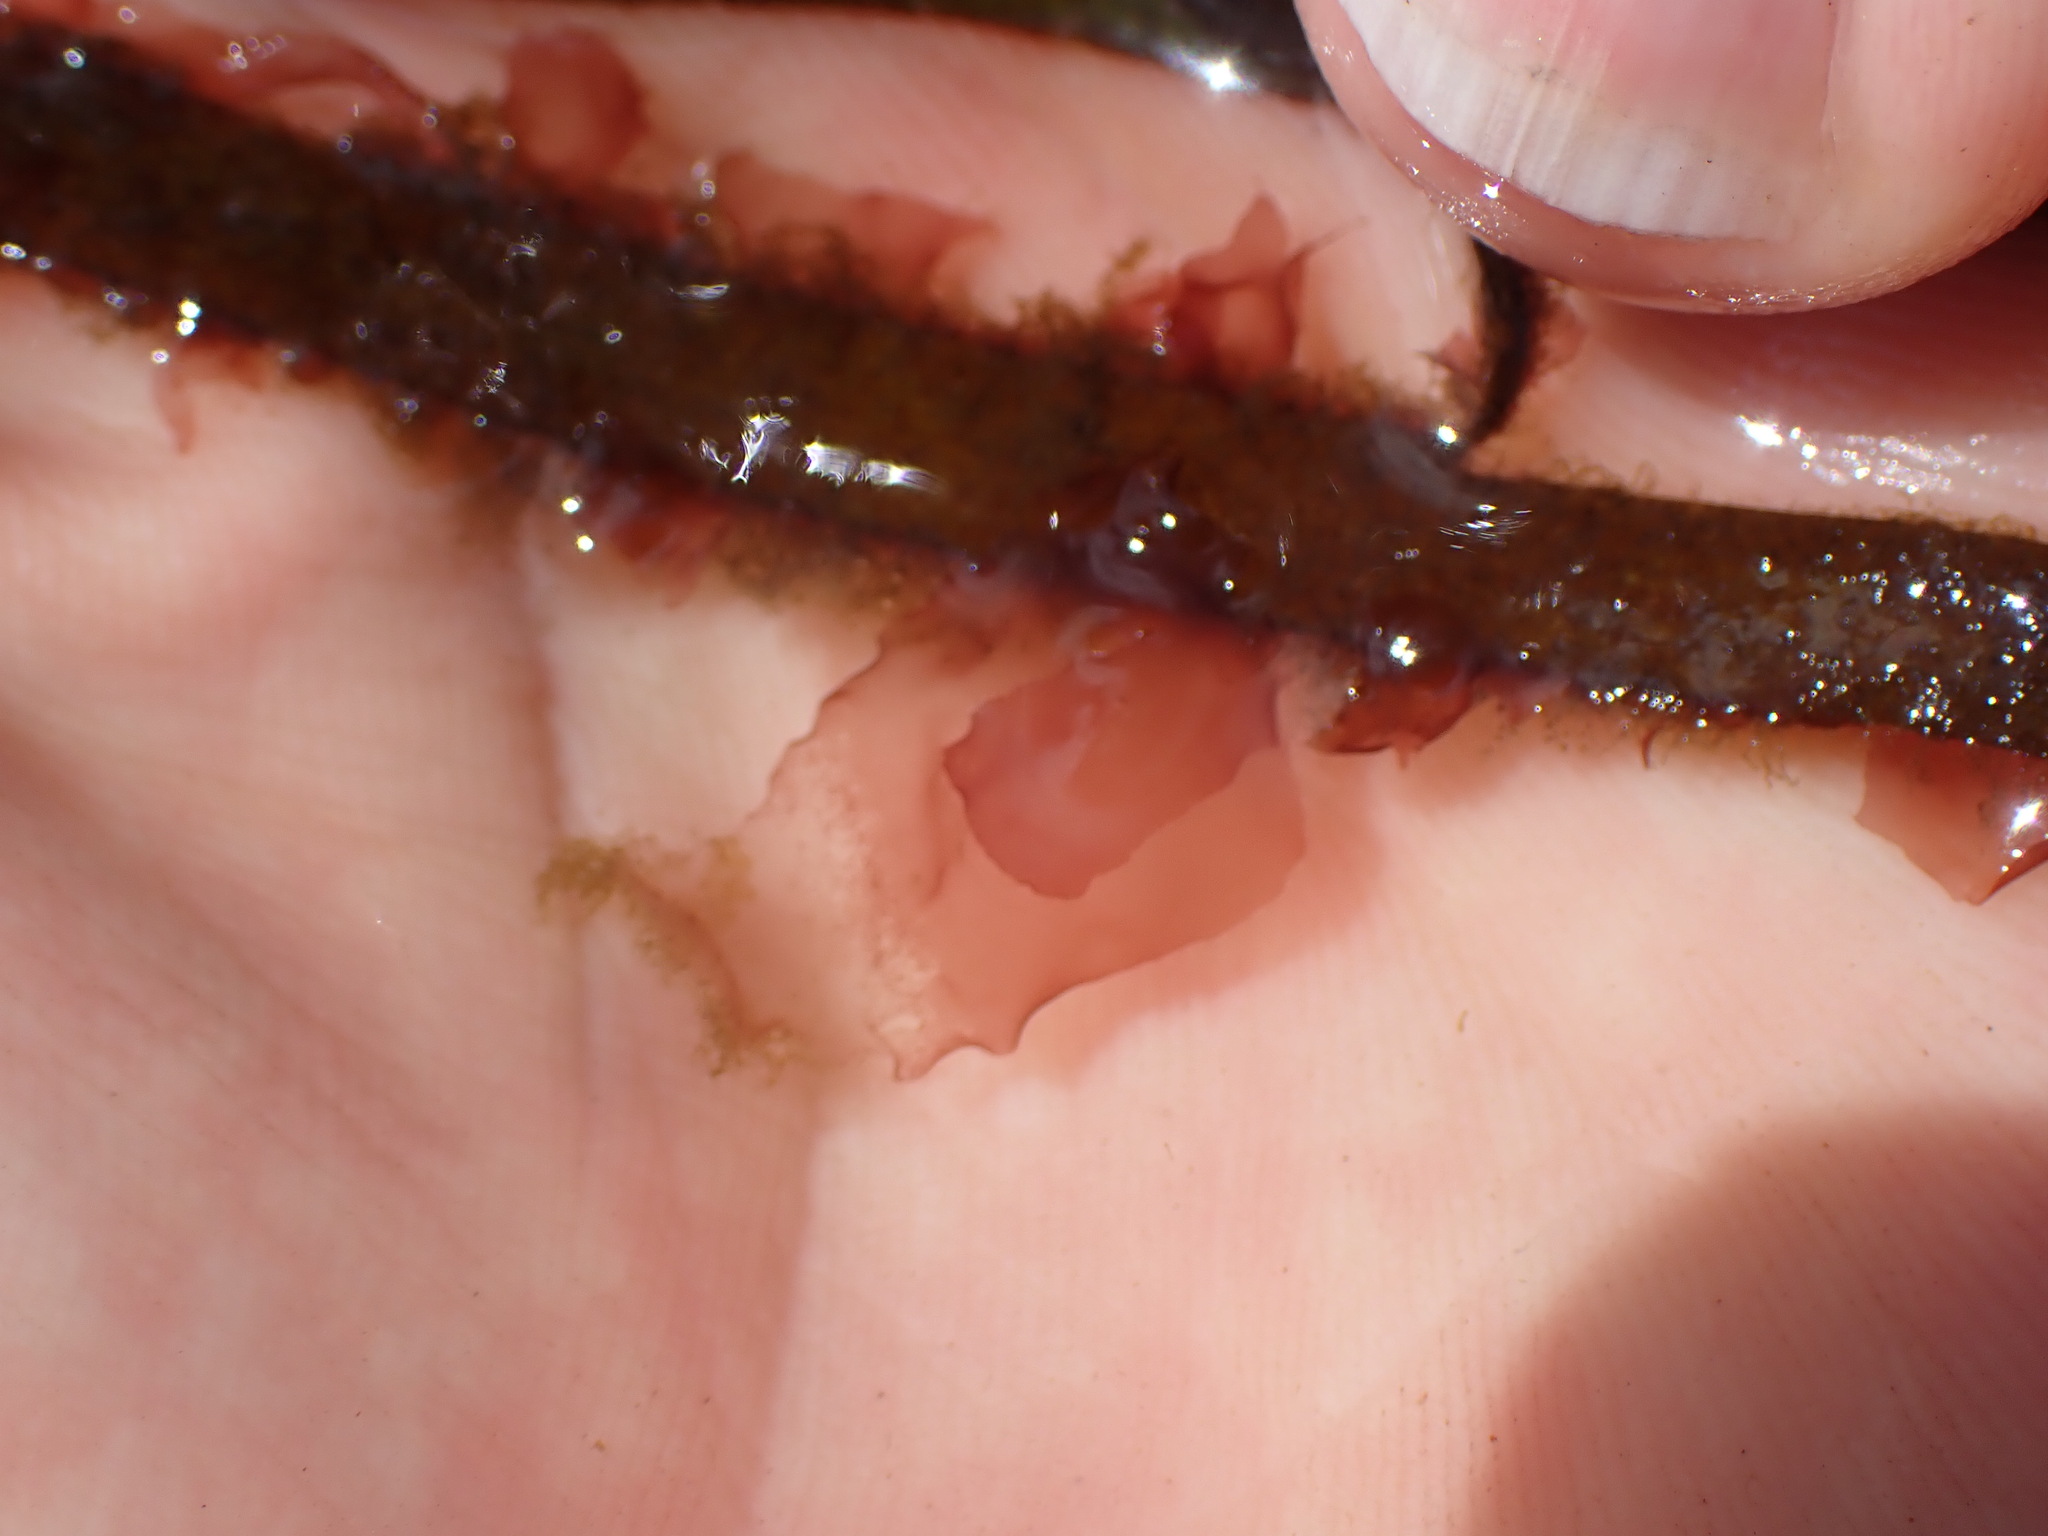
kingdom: Plantae
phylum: Rhodophyta
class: Compsopogonophyceae
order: Erythropeltidales
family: Erythrotrichiaceae
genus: Smithora
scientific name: Smithora naiadum
